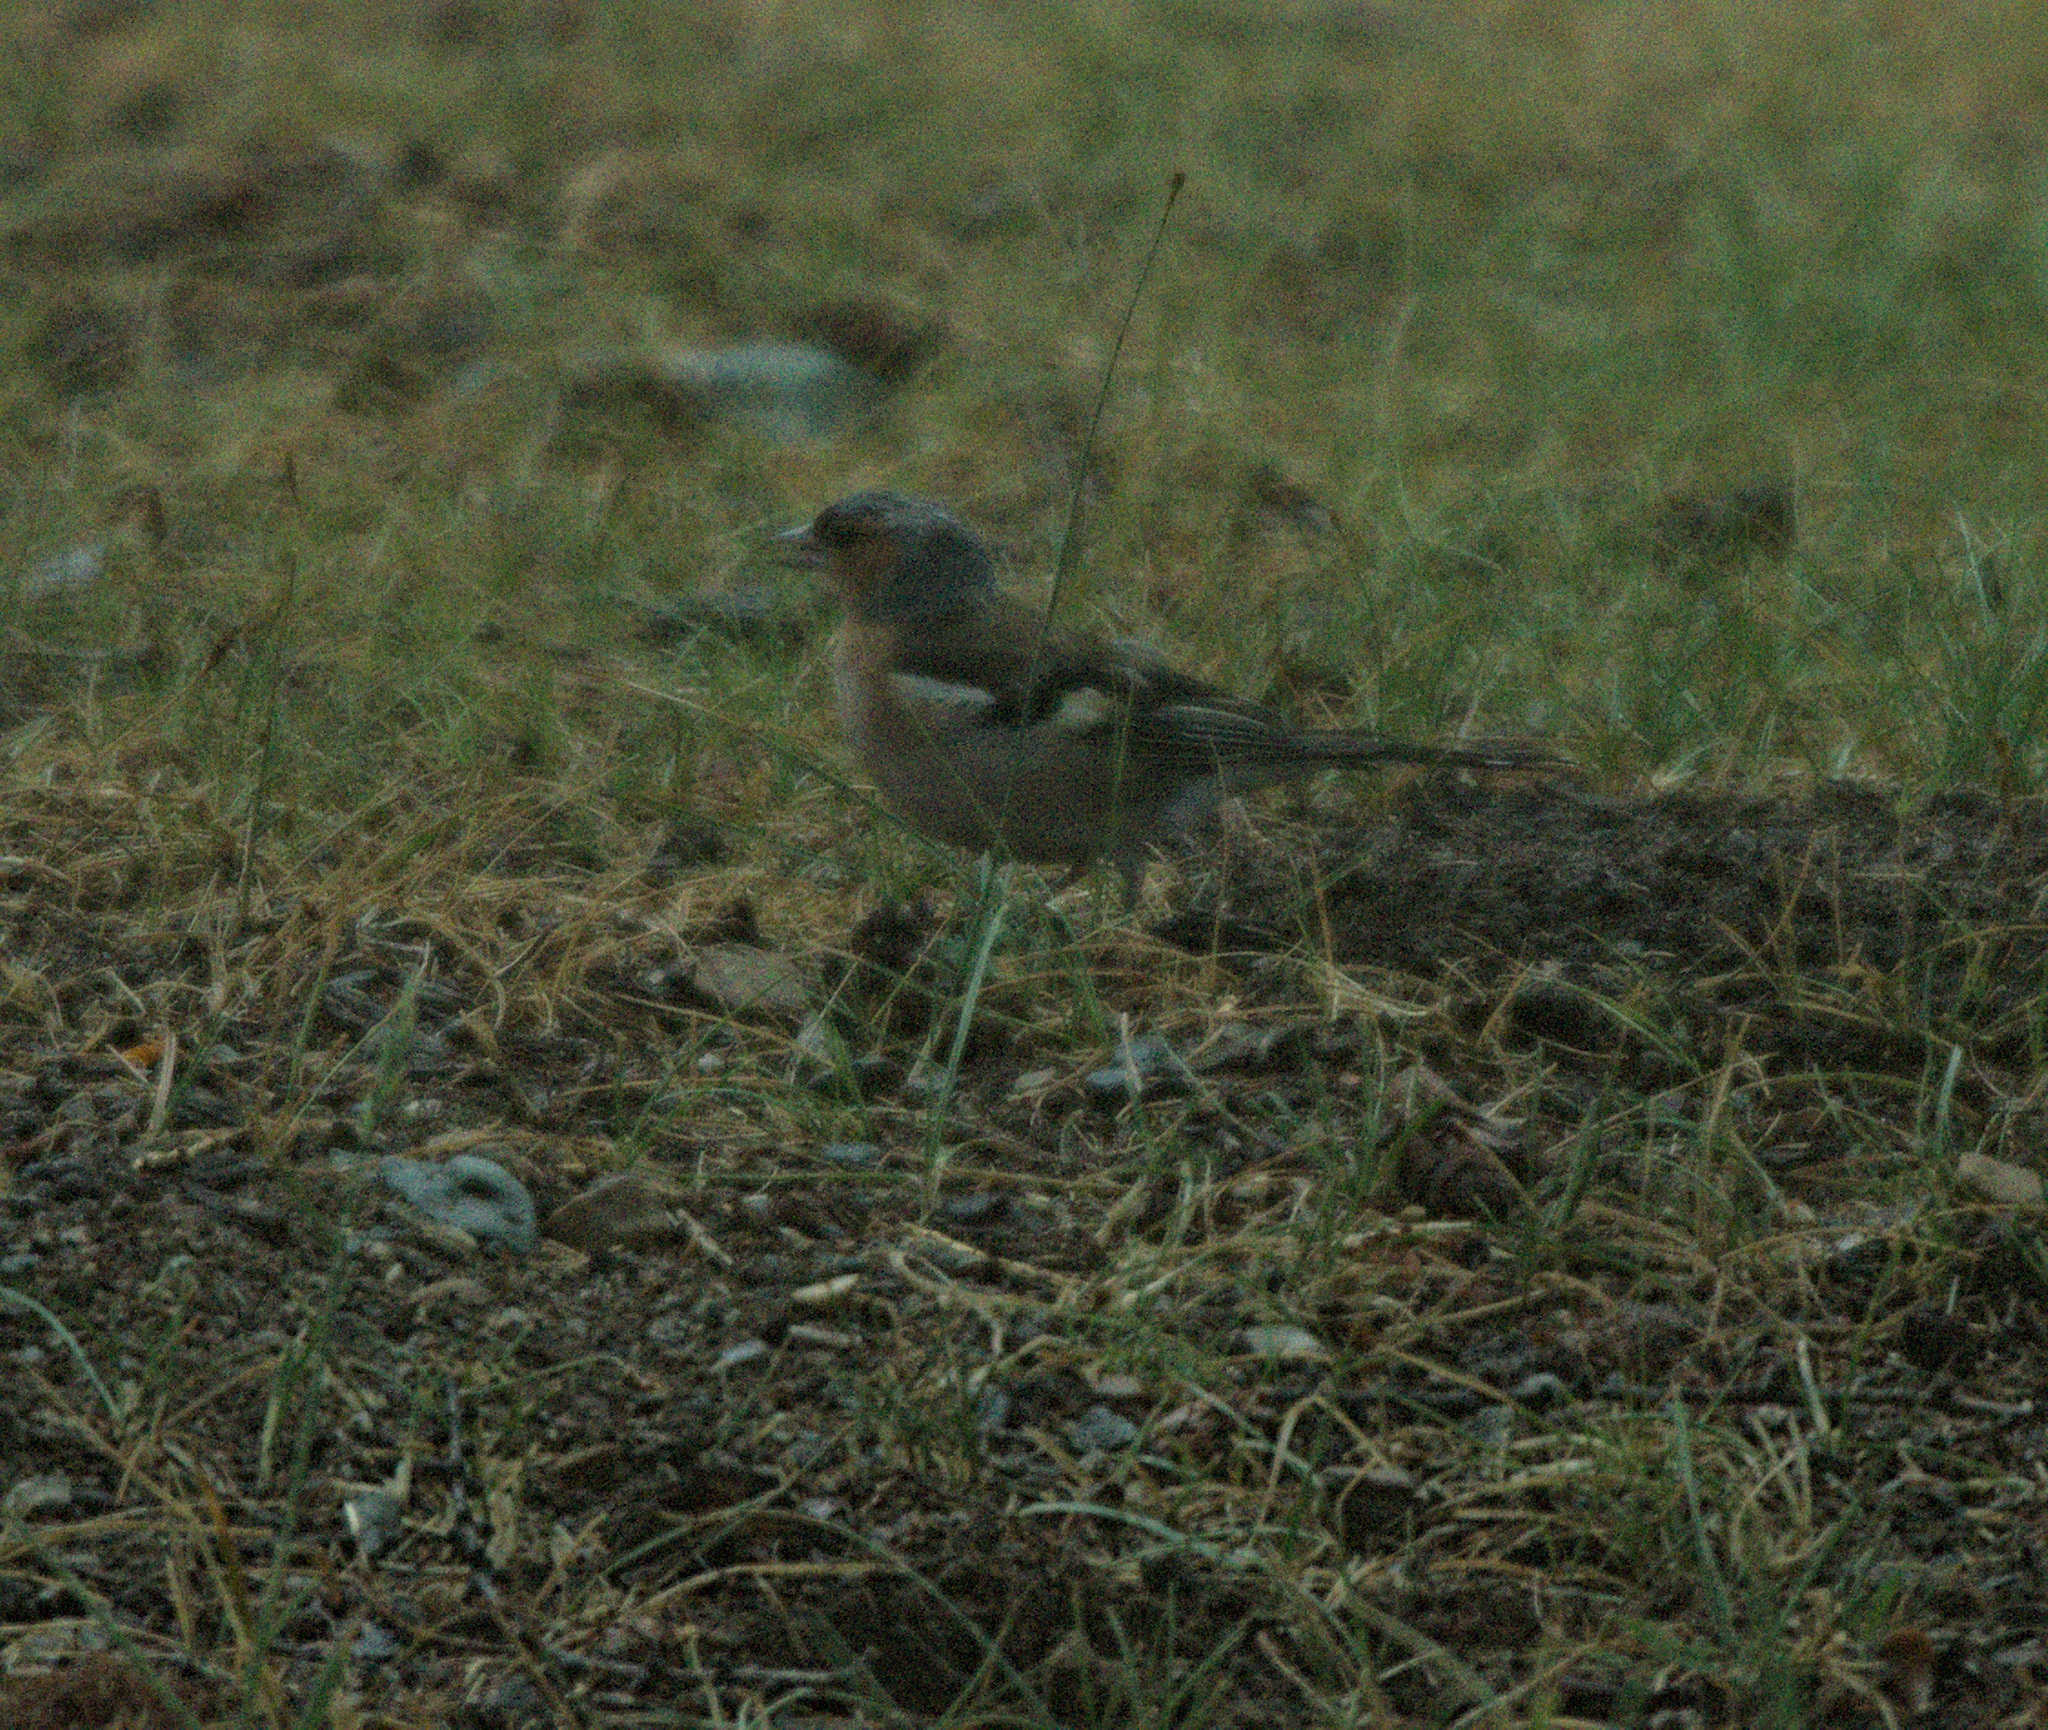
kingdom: Animalia
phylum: Chordata
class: Aves
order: Passeriformes
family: Fringillidae
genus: Fringilla
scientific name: Fringilla coelebs
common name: Common chaffinch
